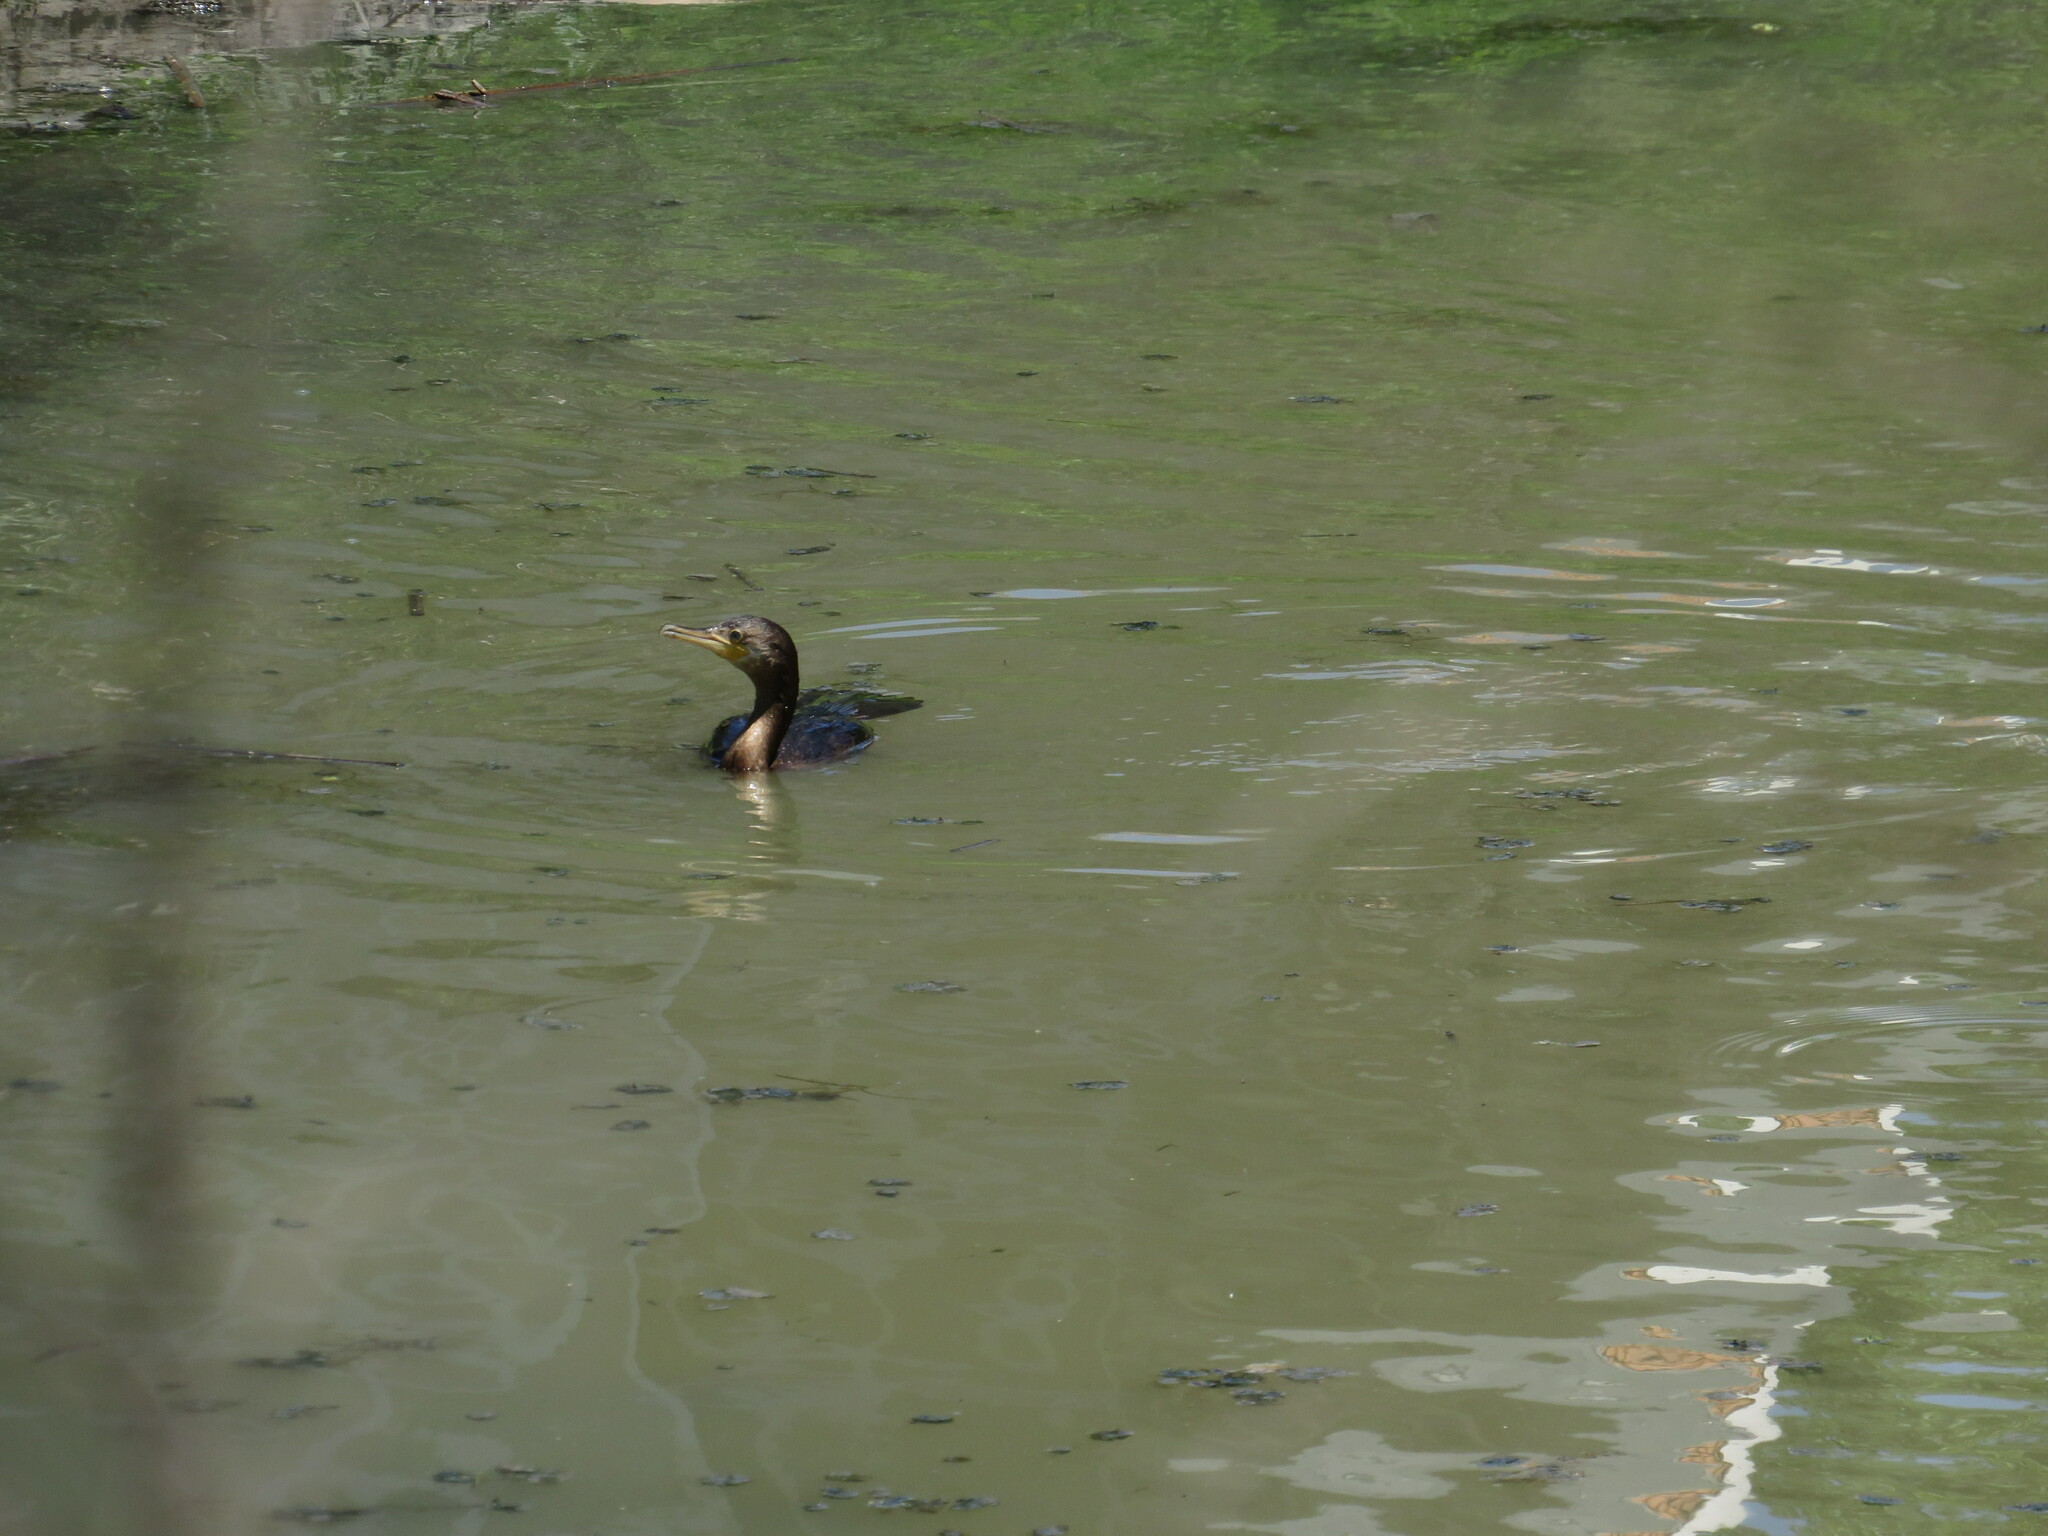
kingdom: Animalia
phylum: Chordata
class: Aves
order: Suliformes
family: Phalacrocoracidae
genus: Phalacrocorax
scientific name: Phalacrocorax brasilianus
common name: Neotropic cormorant
